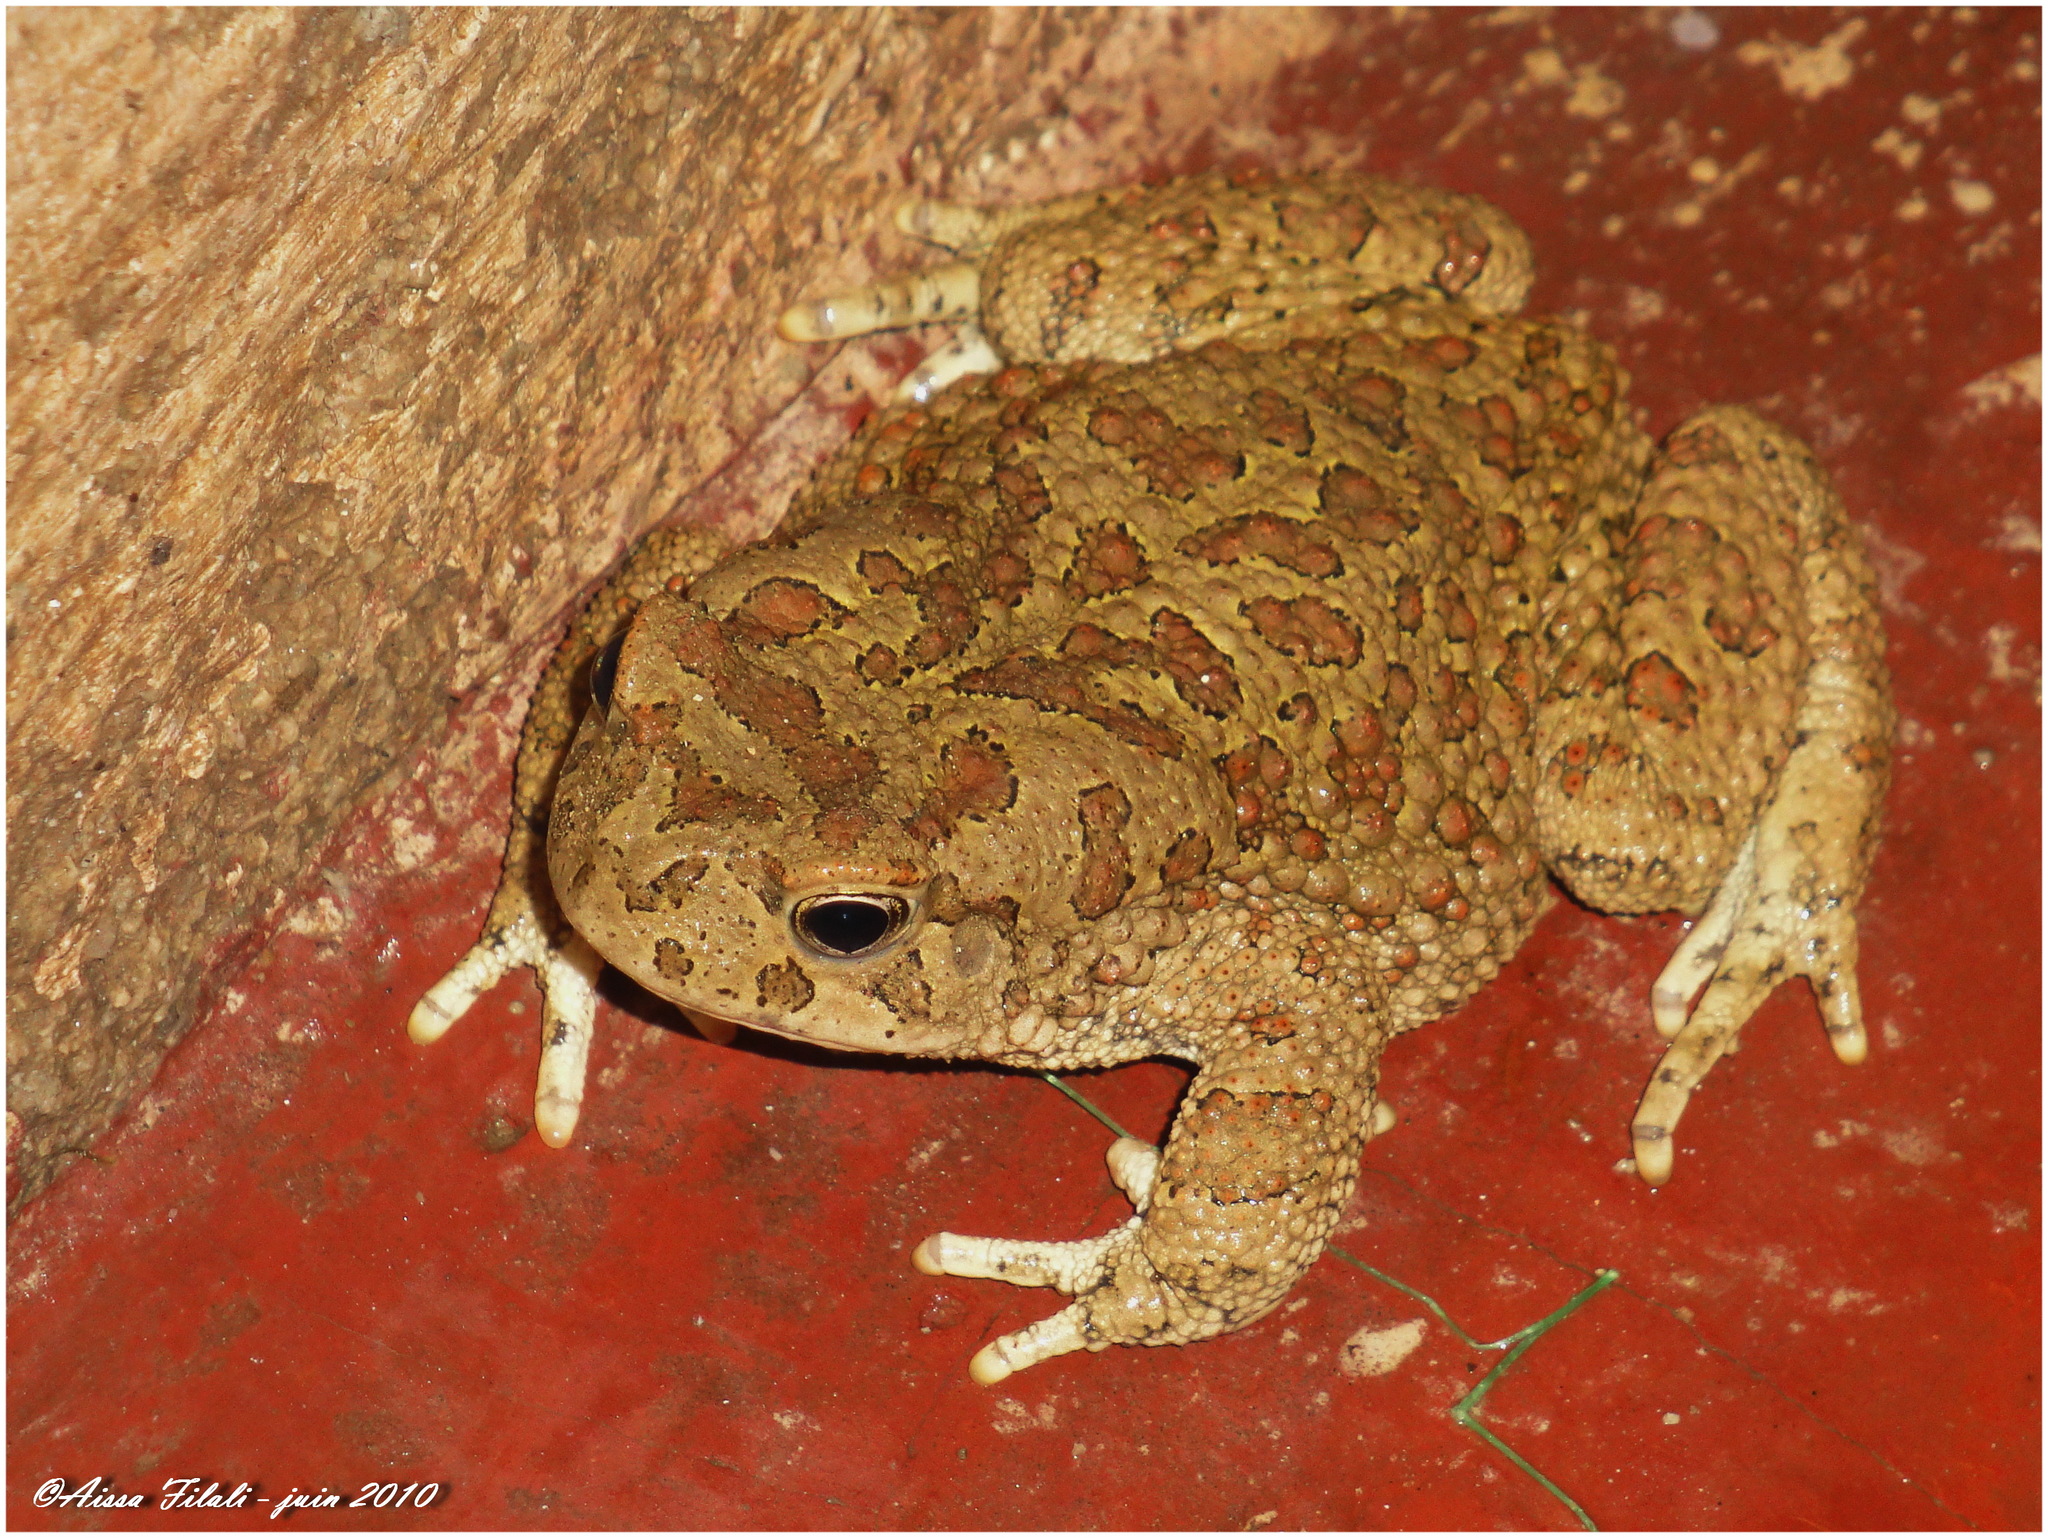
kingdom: Animalia
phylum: Chordata
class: Amphibia
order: Anura
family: Bufonidae
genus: Sclerophrys
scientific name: Sclerophrys mauritanica
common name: Berber toad
